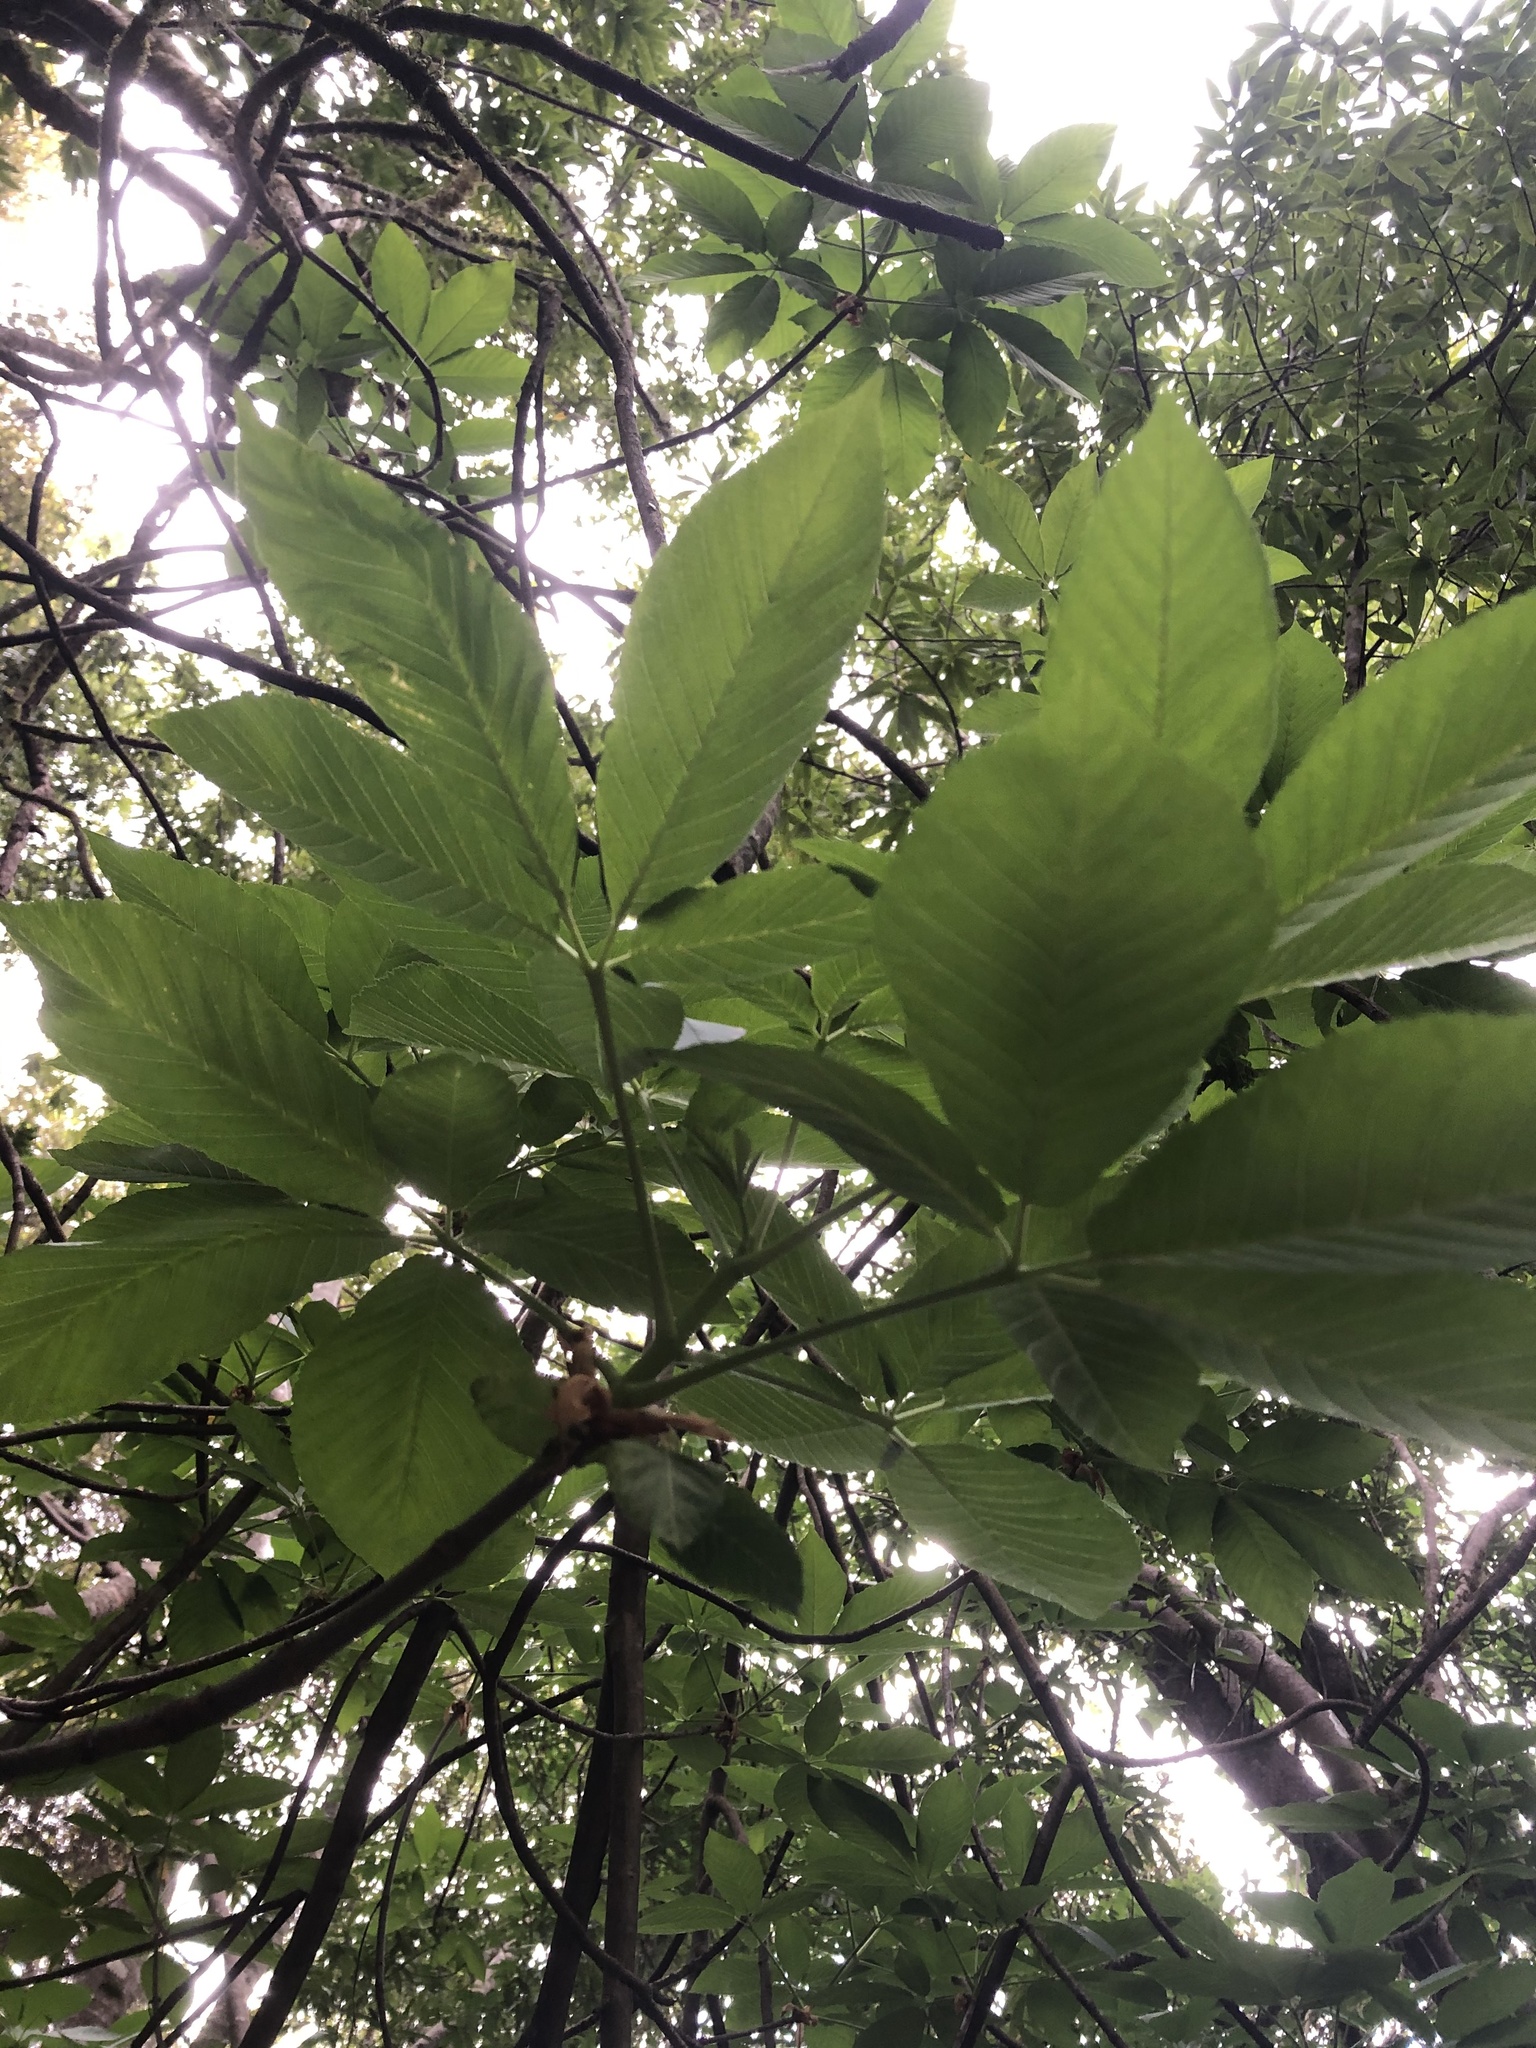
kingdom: Plantae
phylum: Tracheophyta
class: Magnoliopsida
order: Sapindales
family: Sapindaceae
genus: Aesculus
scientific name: Aesculus californica
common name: California buckeye
